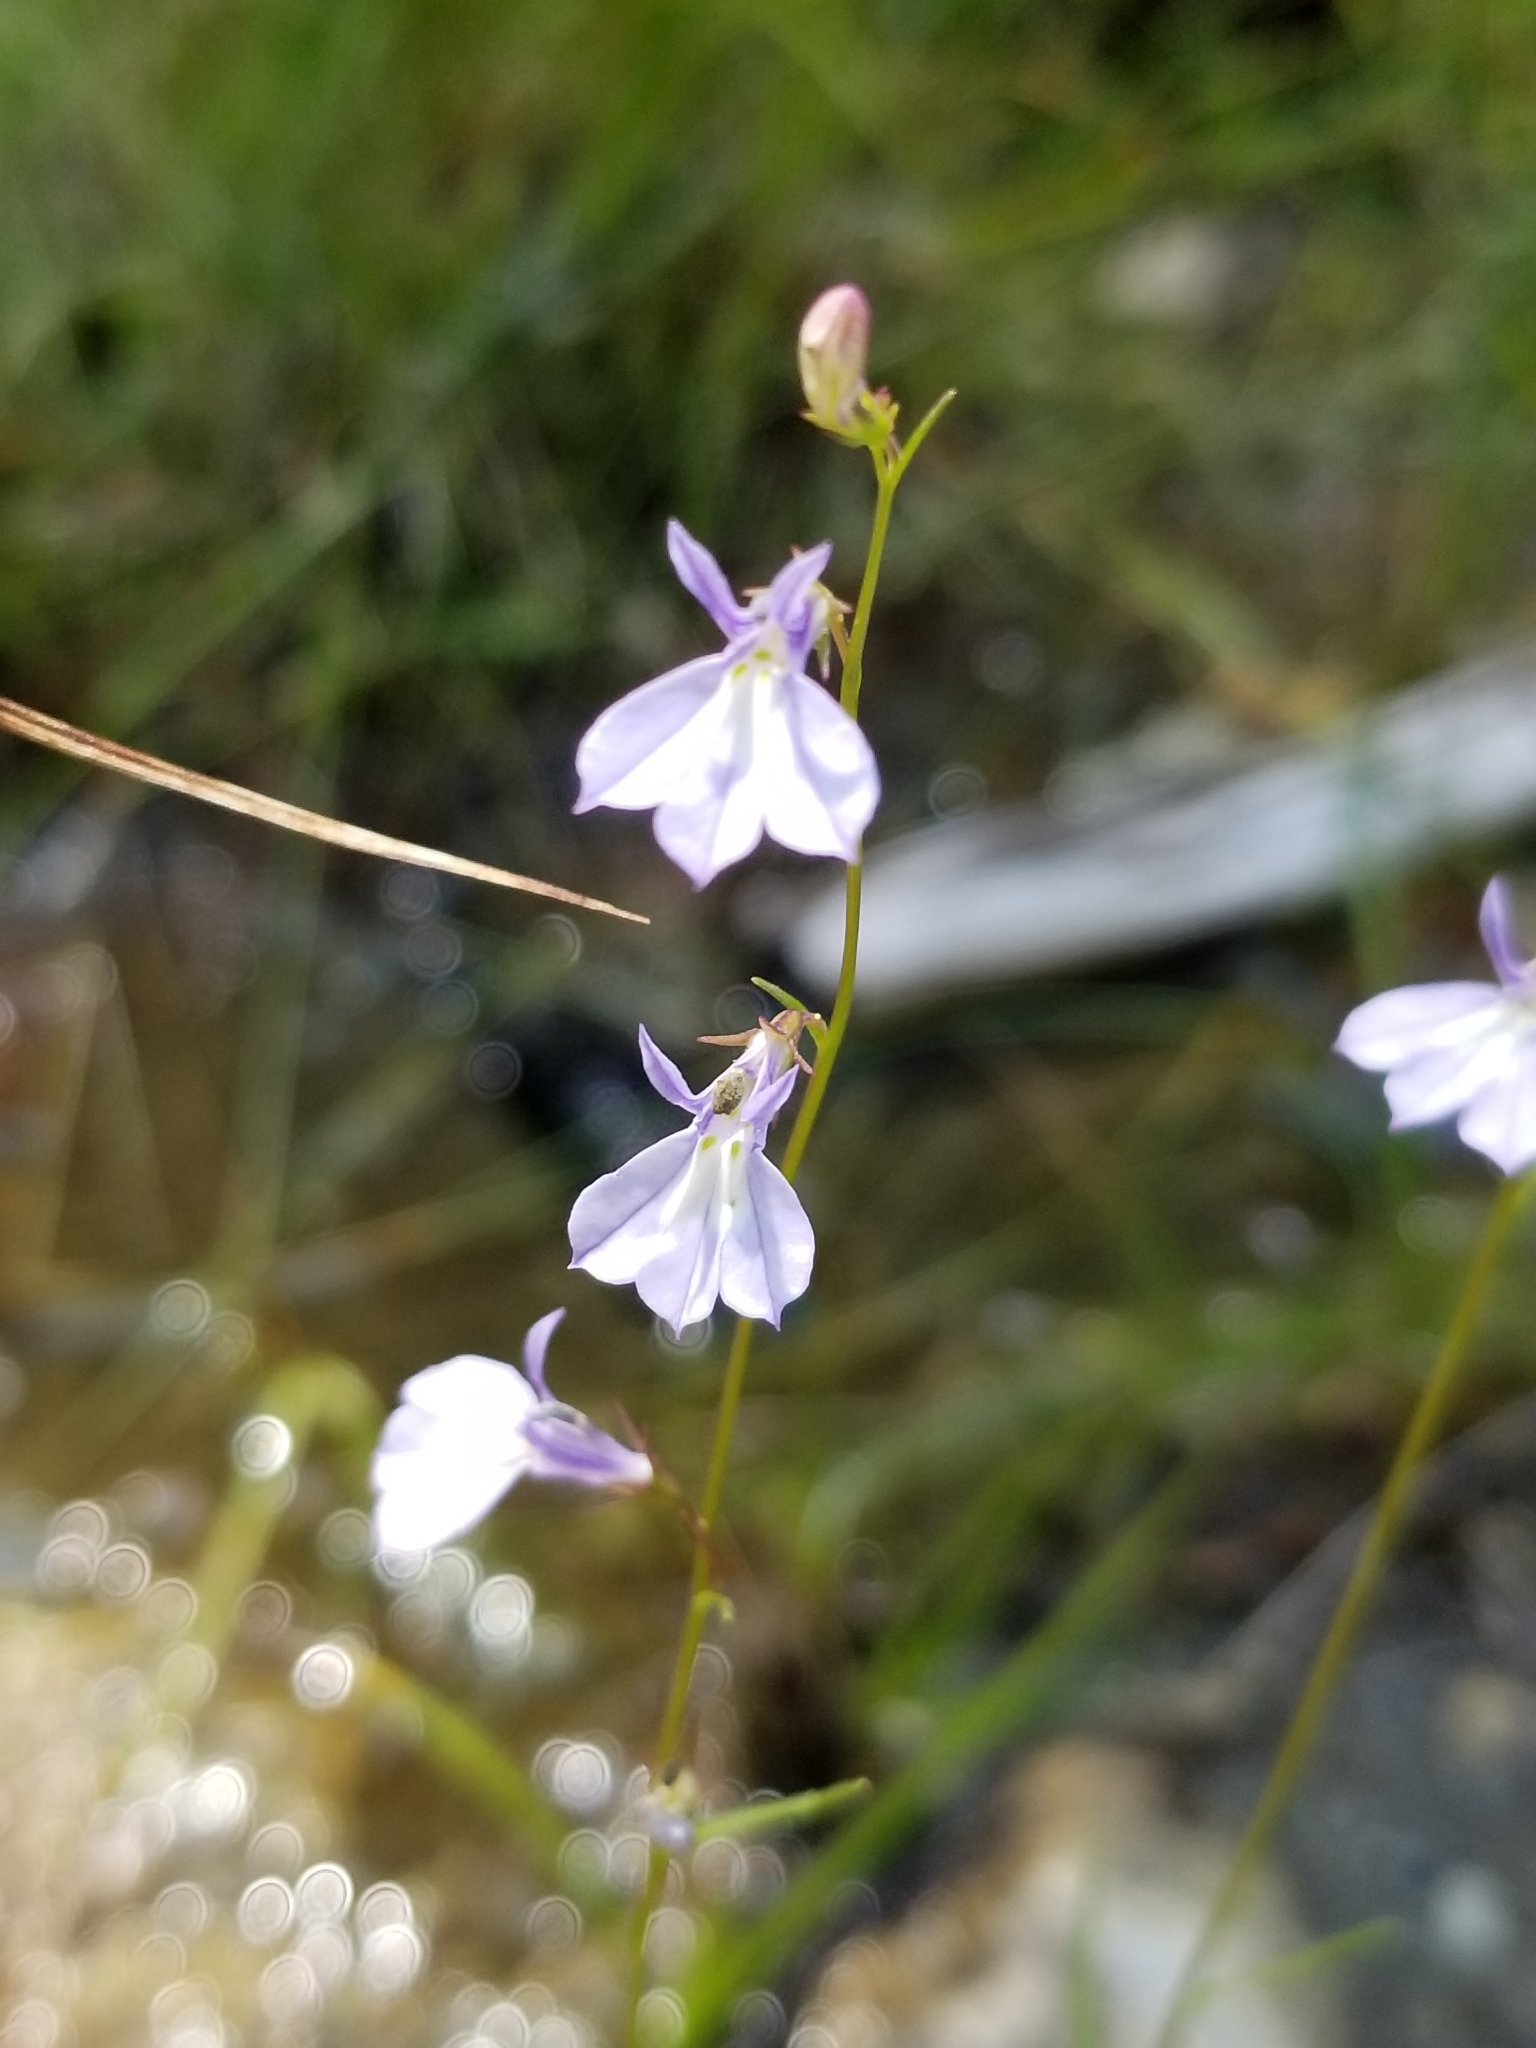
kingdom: Plantae
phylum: Tracheophyta
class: Magnoliopsida
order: Asterales
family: Campanulaceae
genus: Lobelia
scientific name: Lobelia kalmii
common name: Kalm's lobelia
